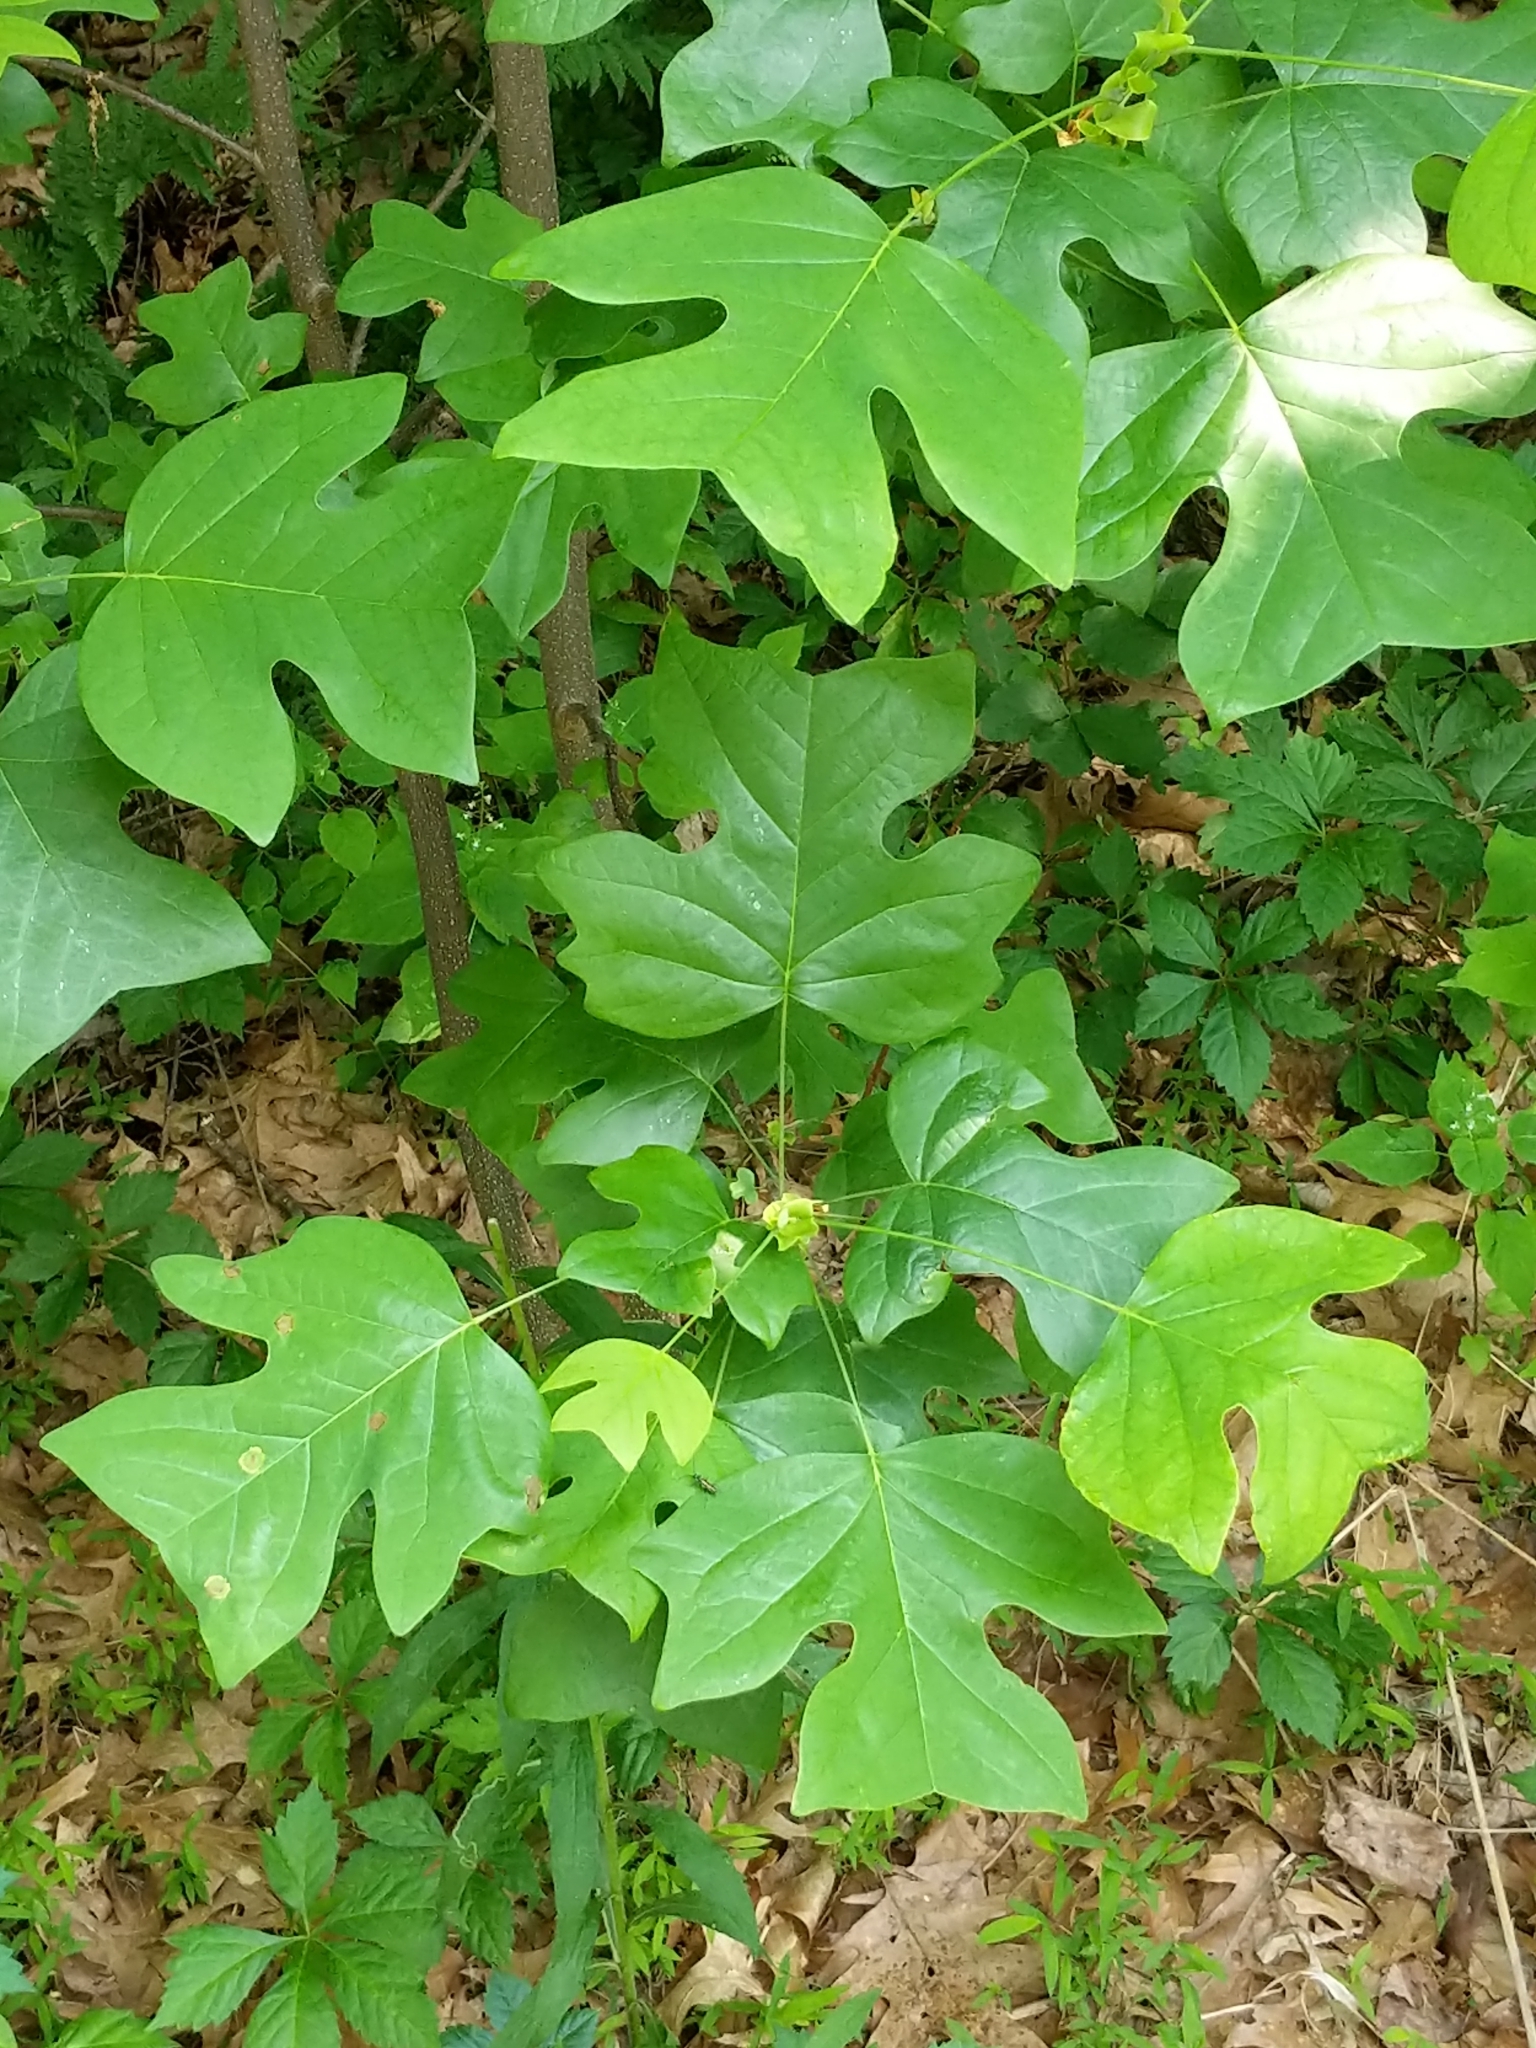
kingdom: Plantae
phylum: Tracheophyta
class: Magnoliopsida
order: Magnoliales
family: Magnoliaceae
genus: Liriodendron
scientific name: Liriodendron tulipifera
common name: Tulip tree
